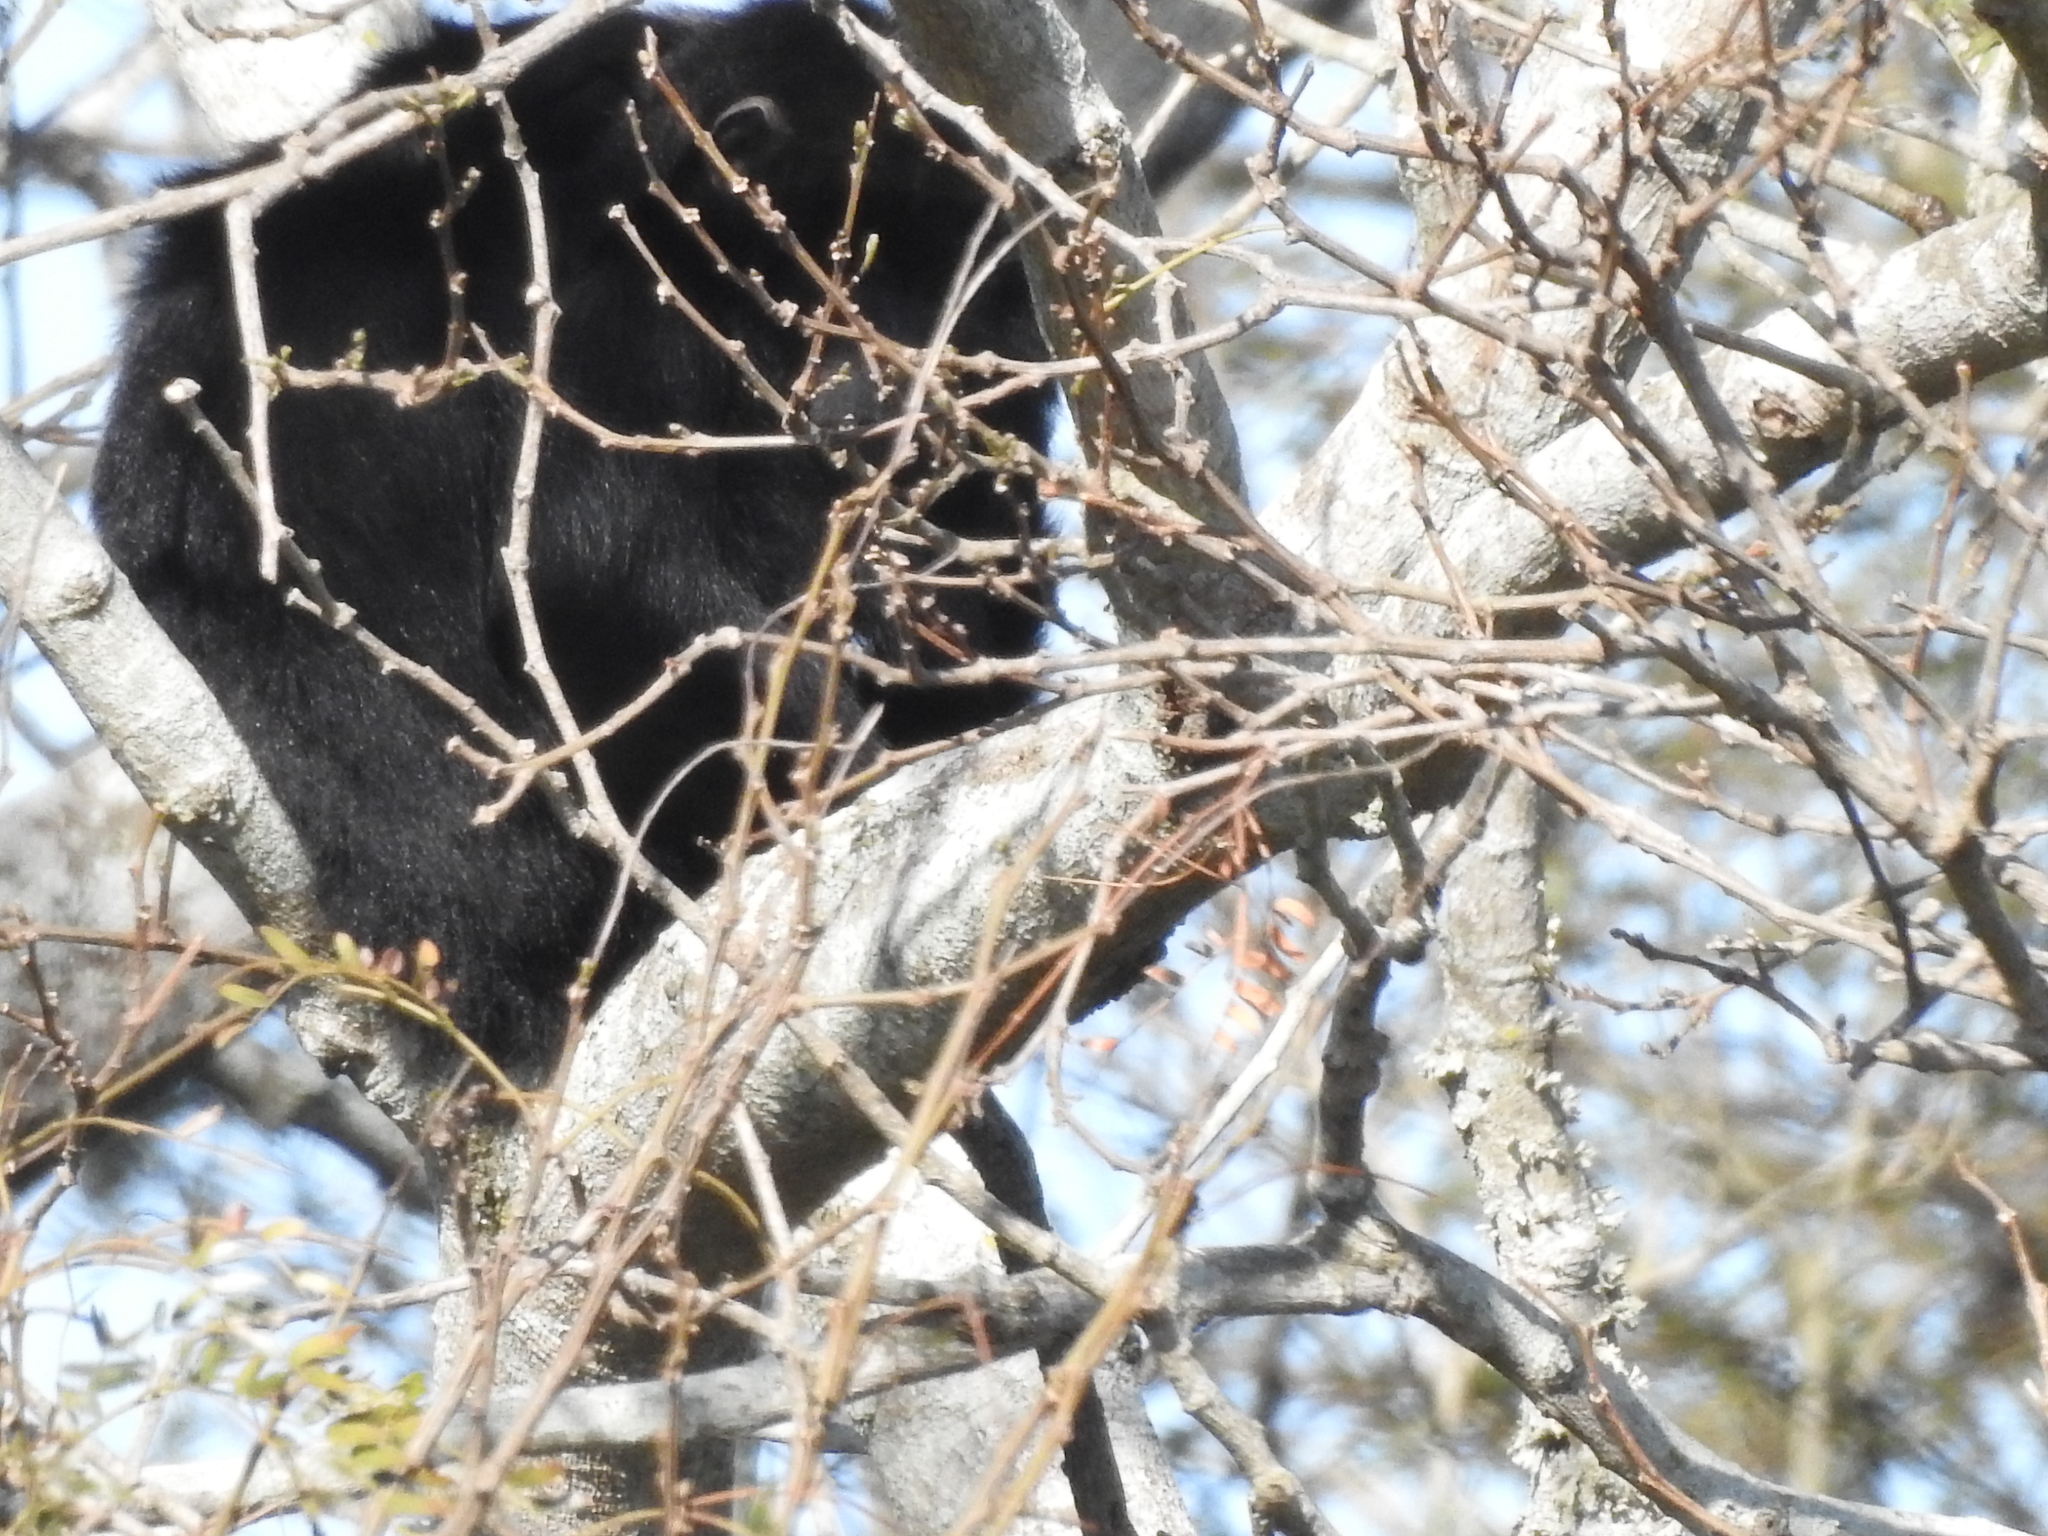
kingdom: Animalia
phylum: Chordata
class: Mammalia
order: Primates
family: Atelidae
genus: Alouatta
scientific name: Alouatta caraya
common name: Black howler
